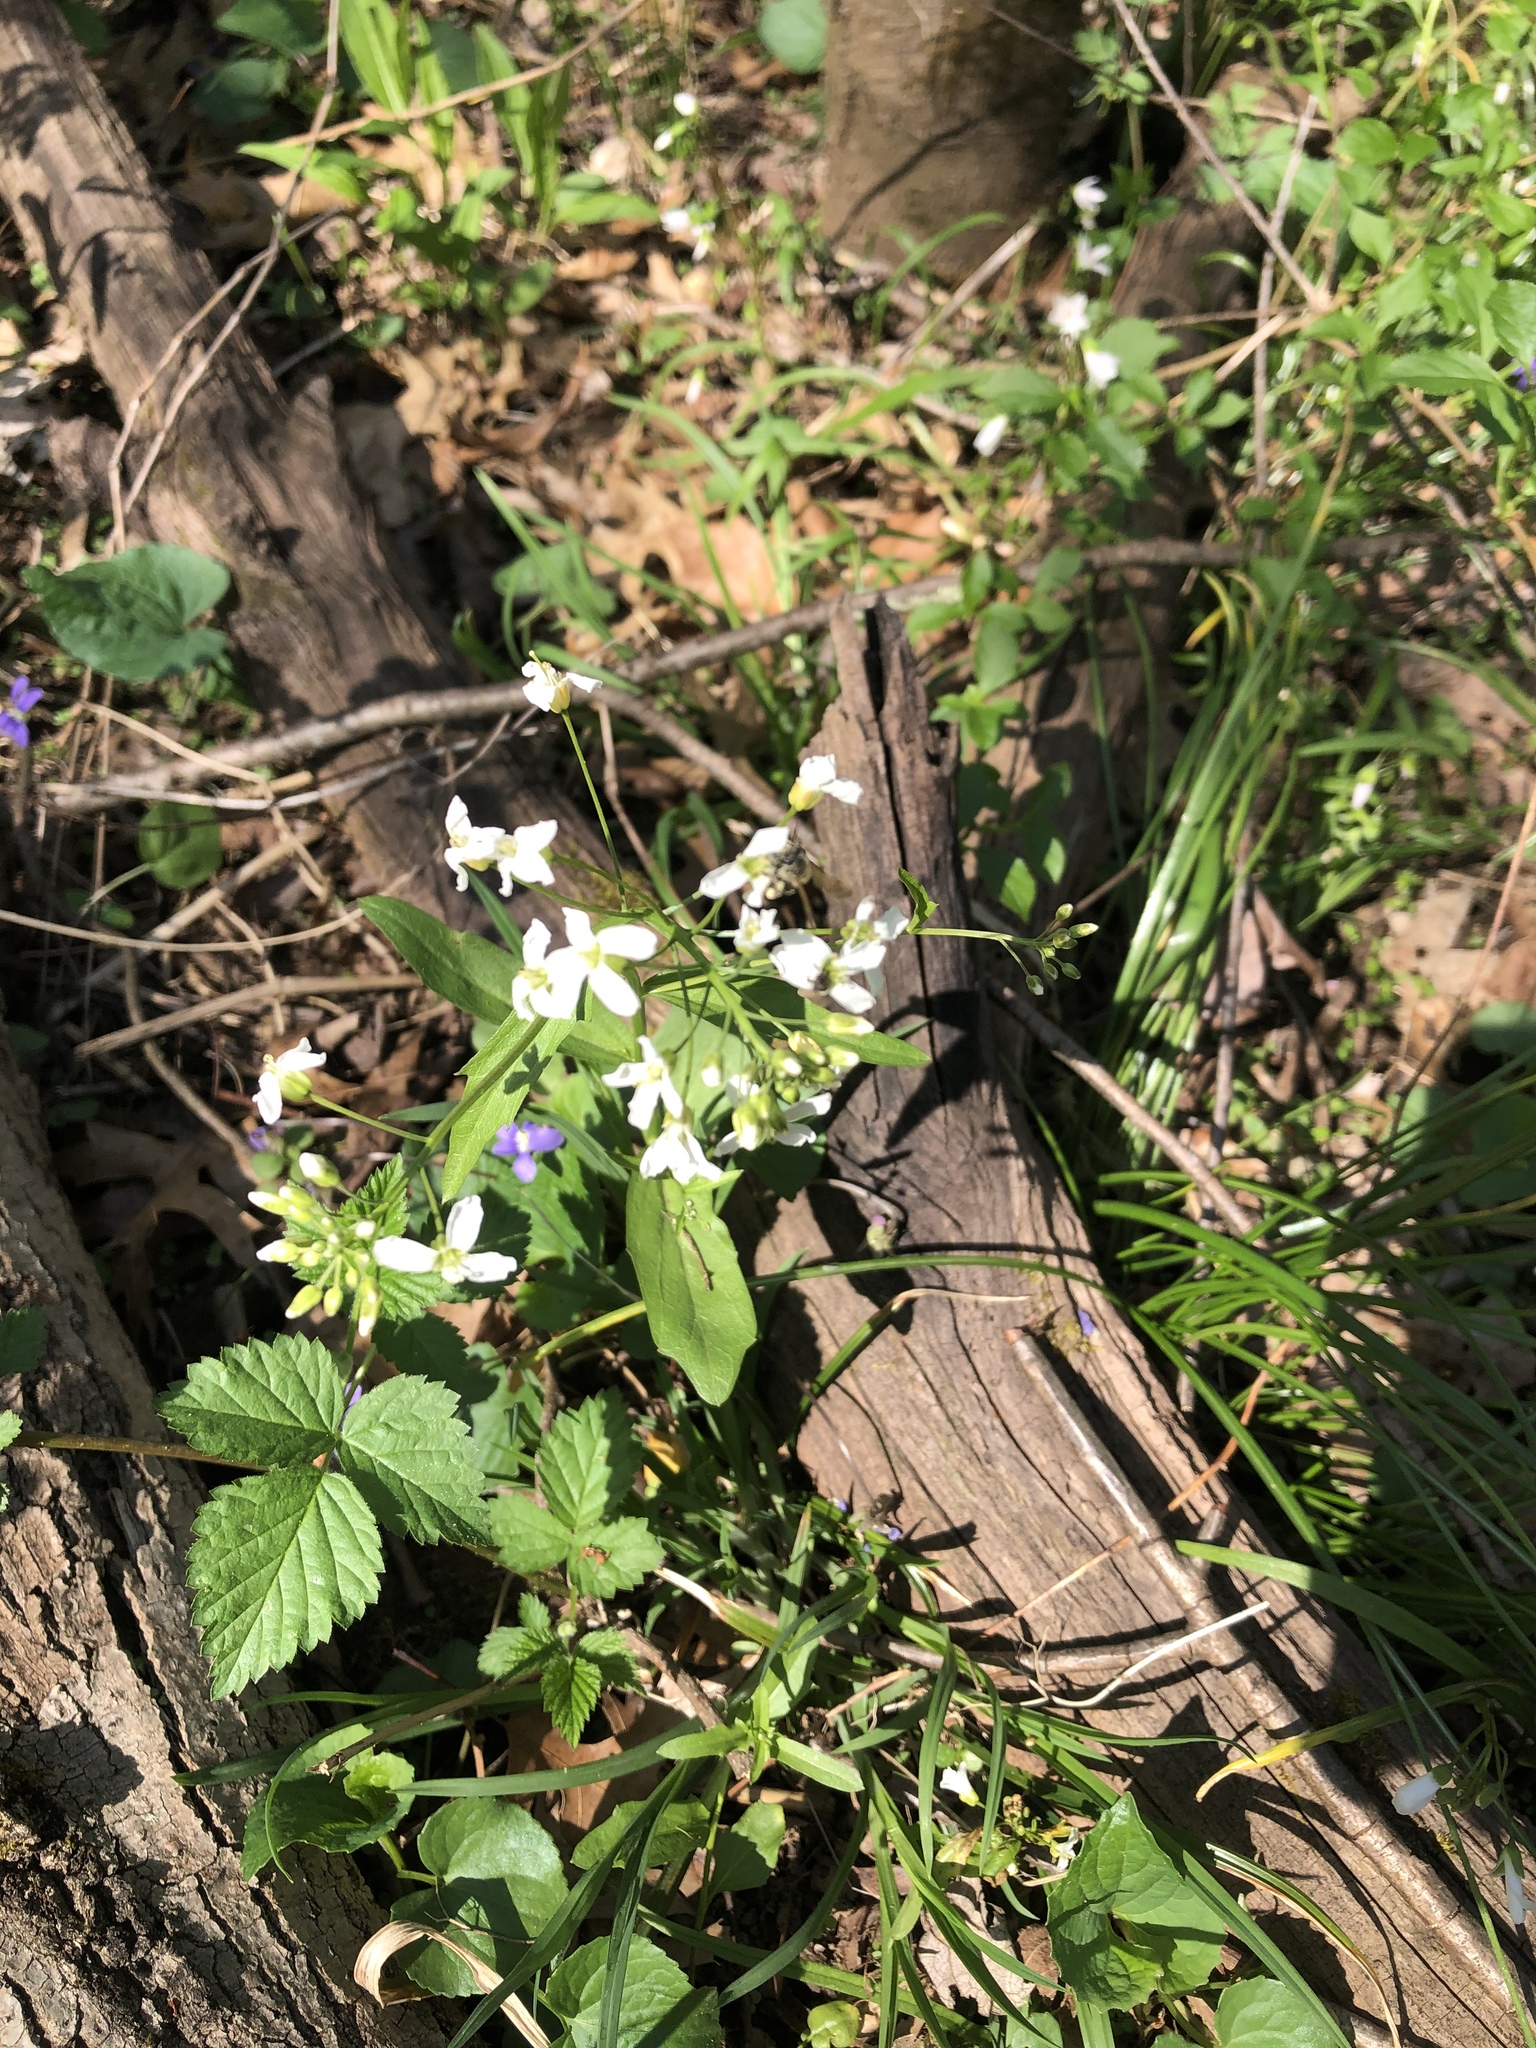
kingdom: Plantae
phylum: Tracheophyta
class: Magnoliopsida
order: Brassicales
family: Brassicaceae
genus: Cardamine
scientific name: Cardamine bulbosa
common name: Spring cress
